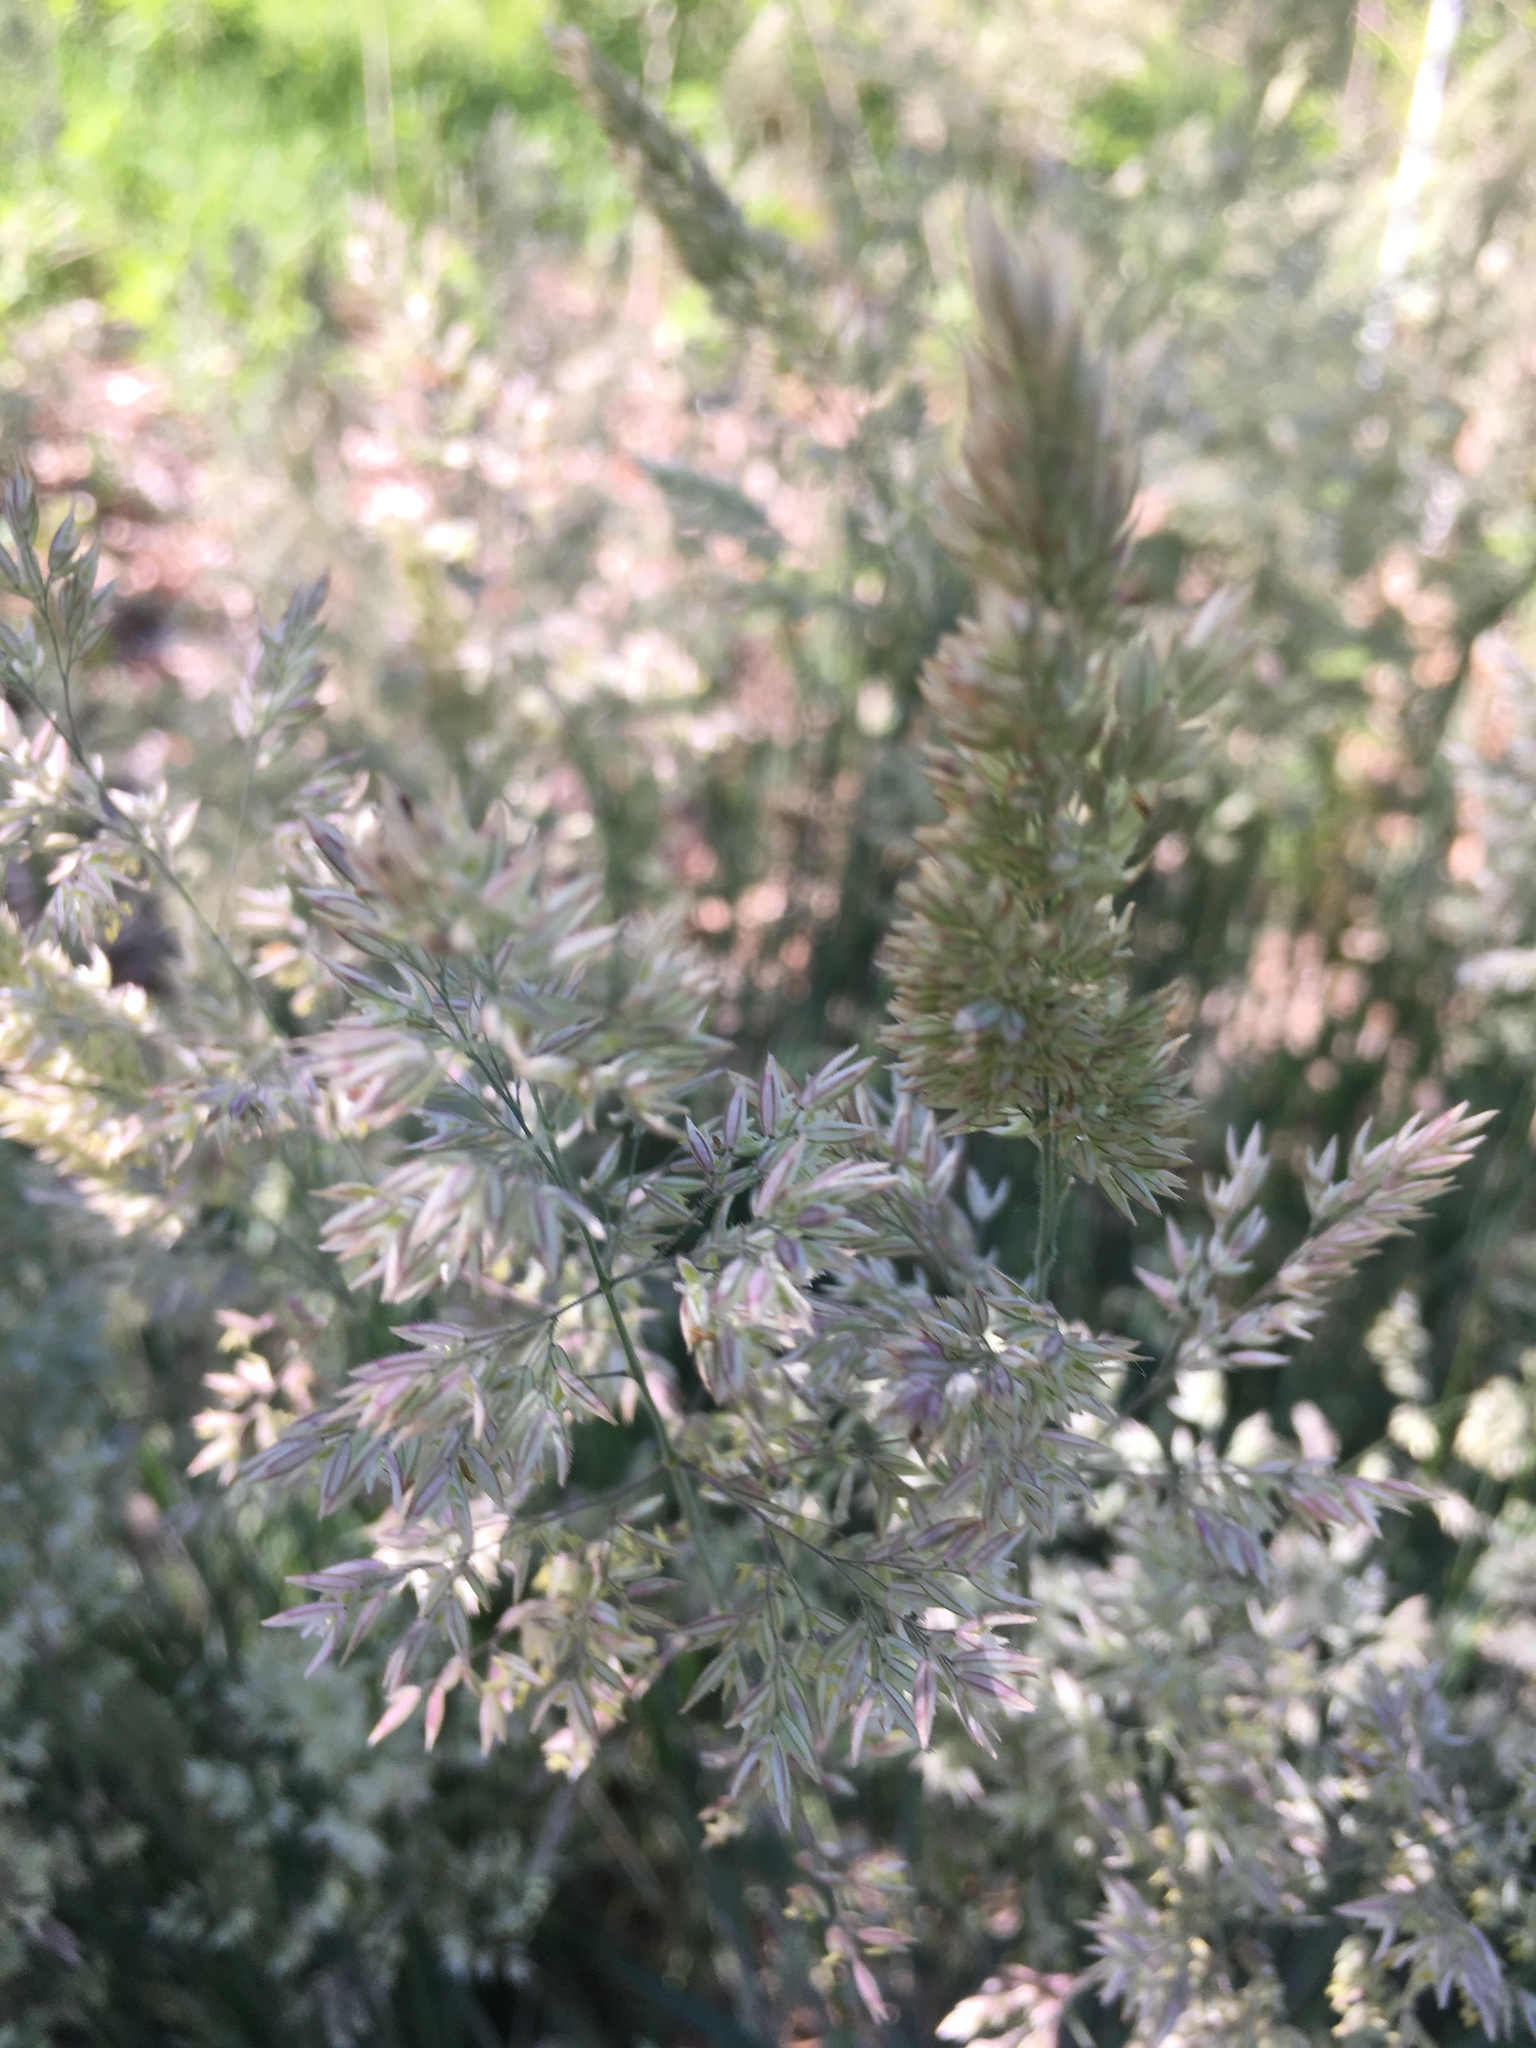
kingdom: Plantae
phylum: Tracheophyta
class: Liliopsida
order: Poales
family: Poaceae
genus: Holcus
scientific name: Holcus lanatus
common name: Yorkshire-fog
